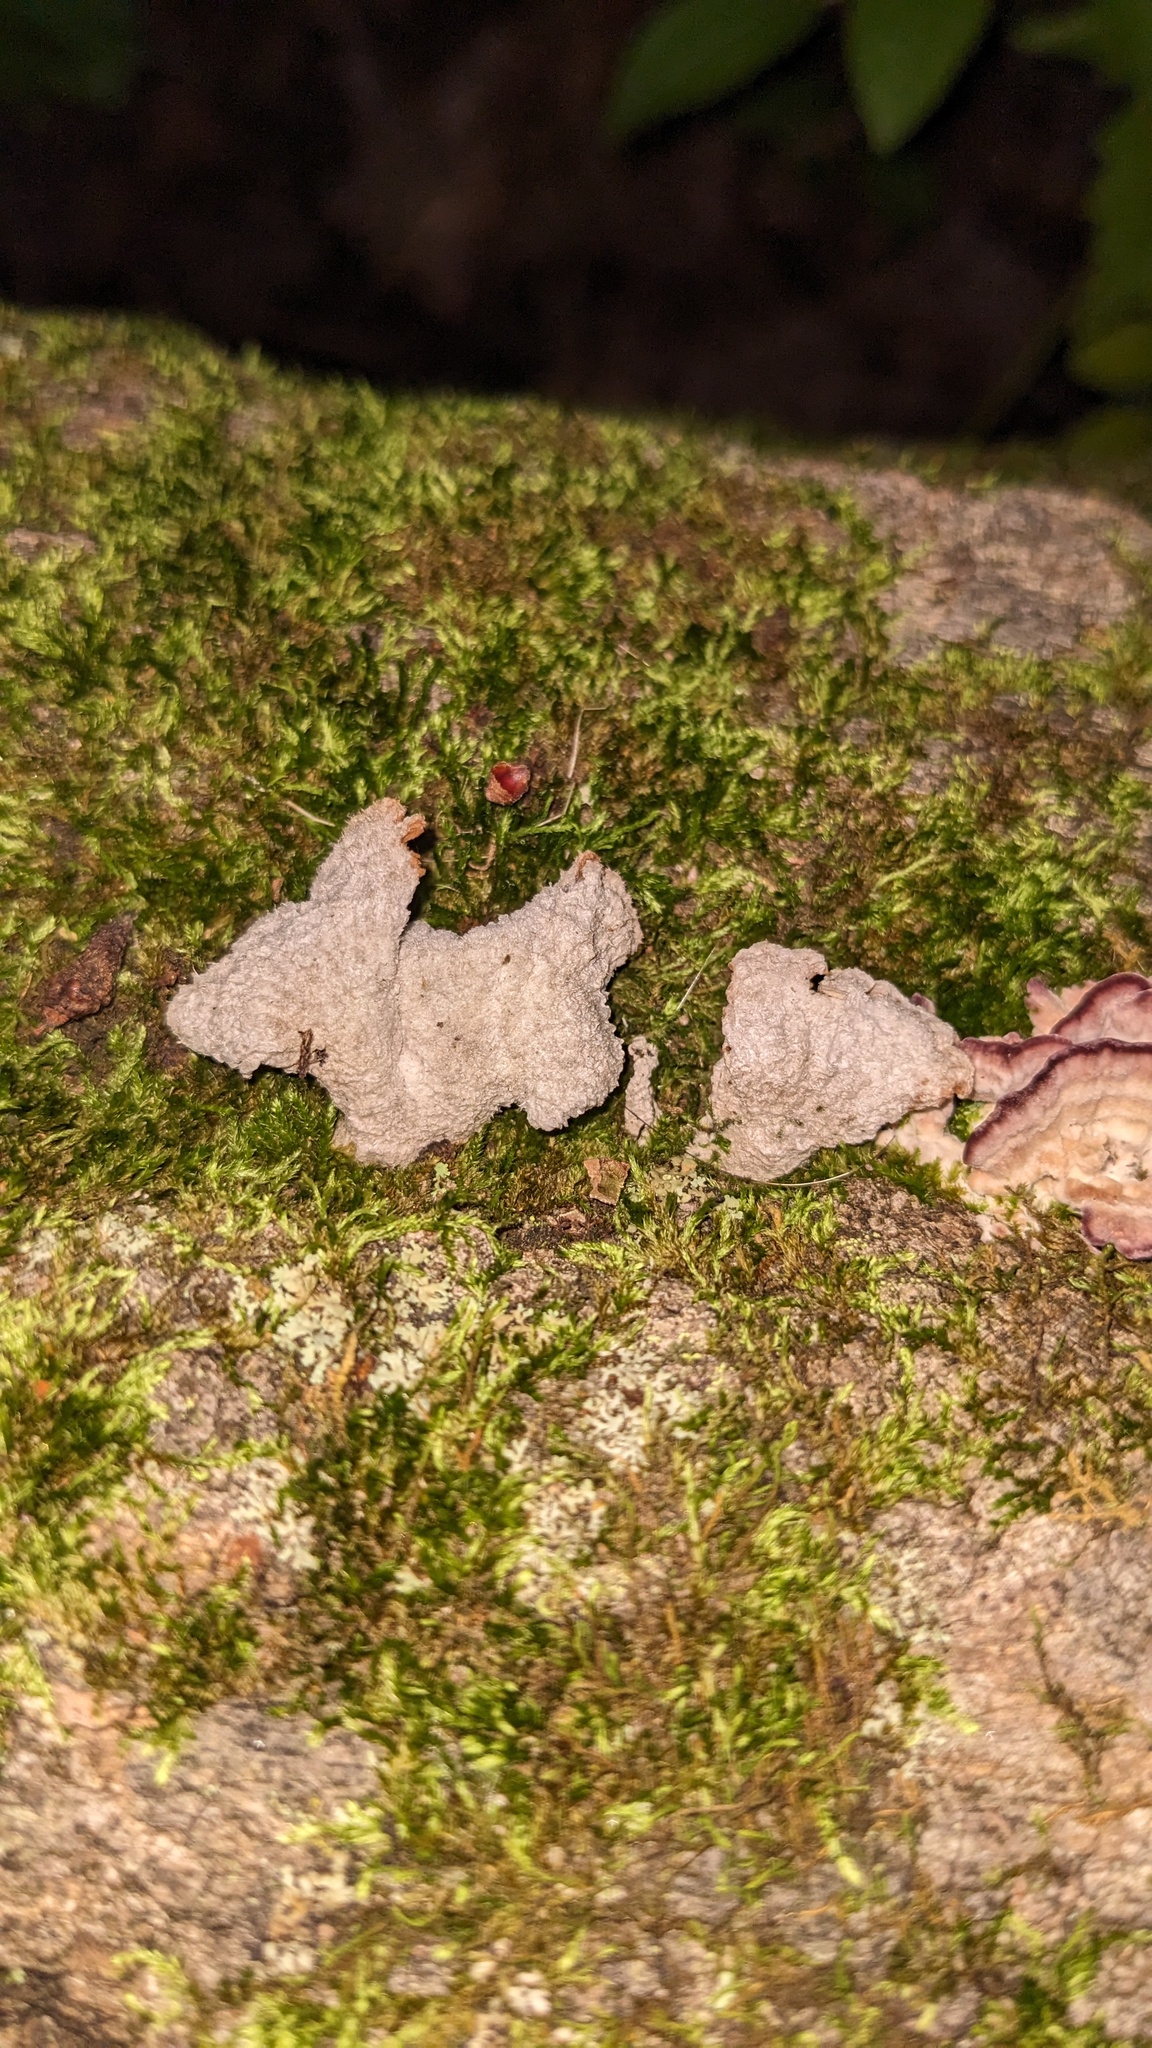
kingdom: Fungi
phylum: Basidiomycota
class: Agaricomycetes
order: Agaricales
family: Schizophyllaceae
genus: Schizophyllum
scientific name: Schizophyllum commune
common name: Common porecrust
